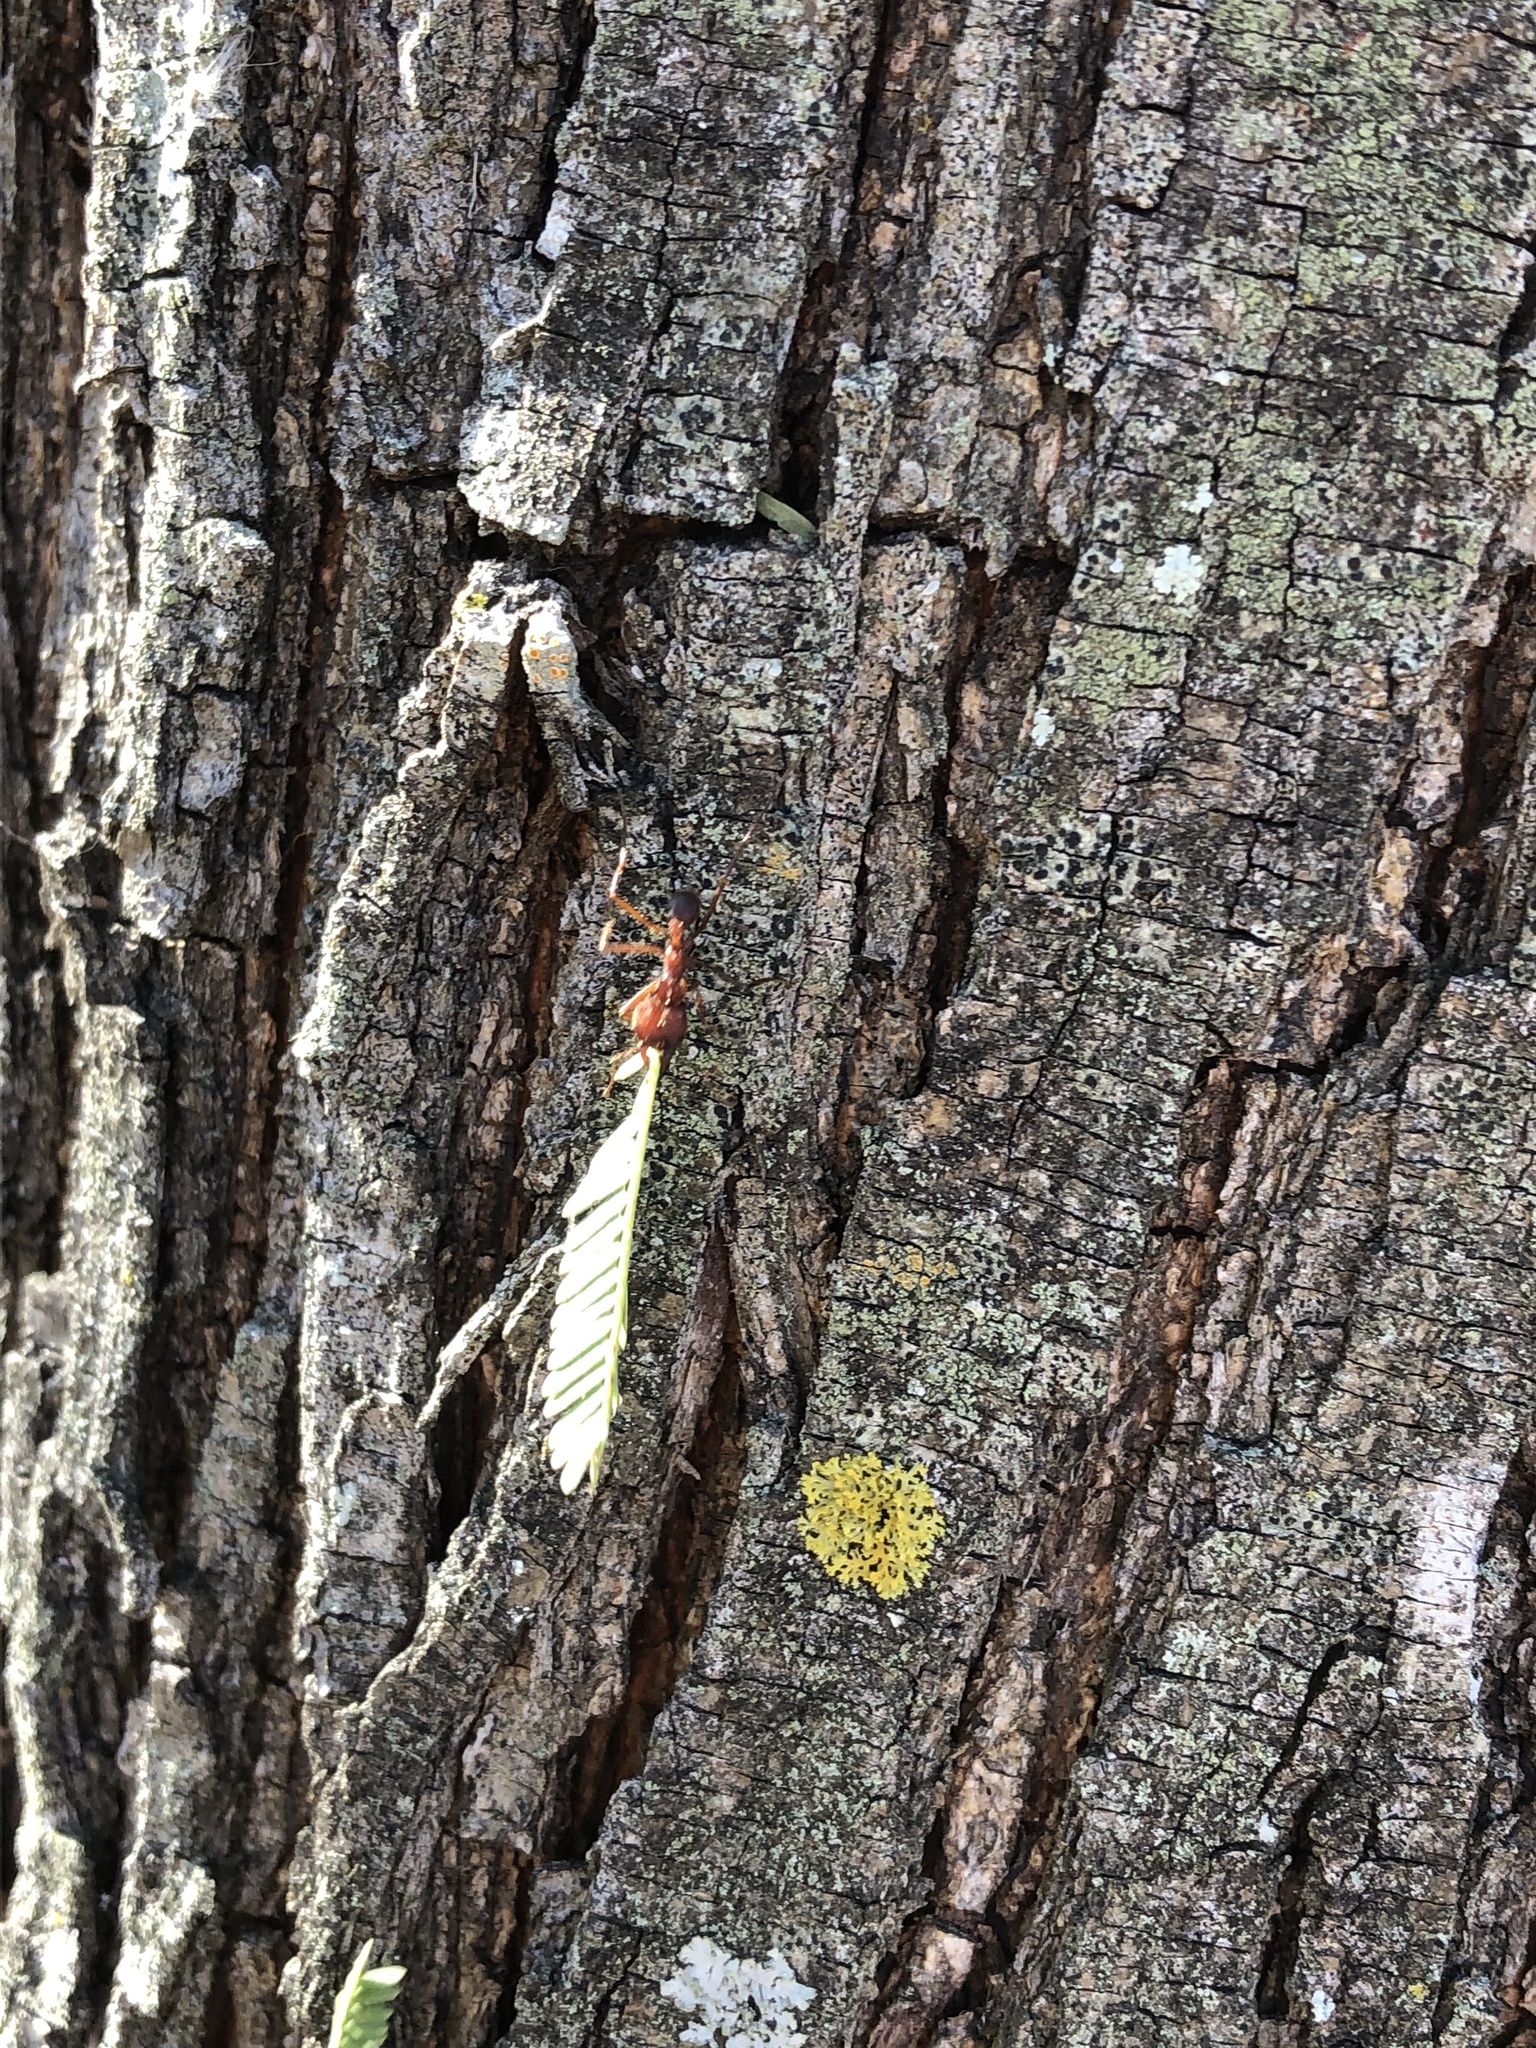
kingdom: Animalia
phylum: Arthropoda
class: Insecta
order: Hymenoptera
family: Formicidae
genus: Atta
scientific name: Atta texana
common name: Texas leafcutting ant
